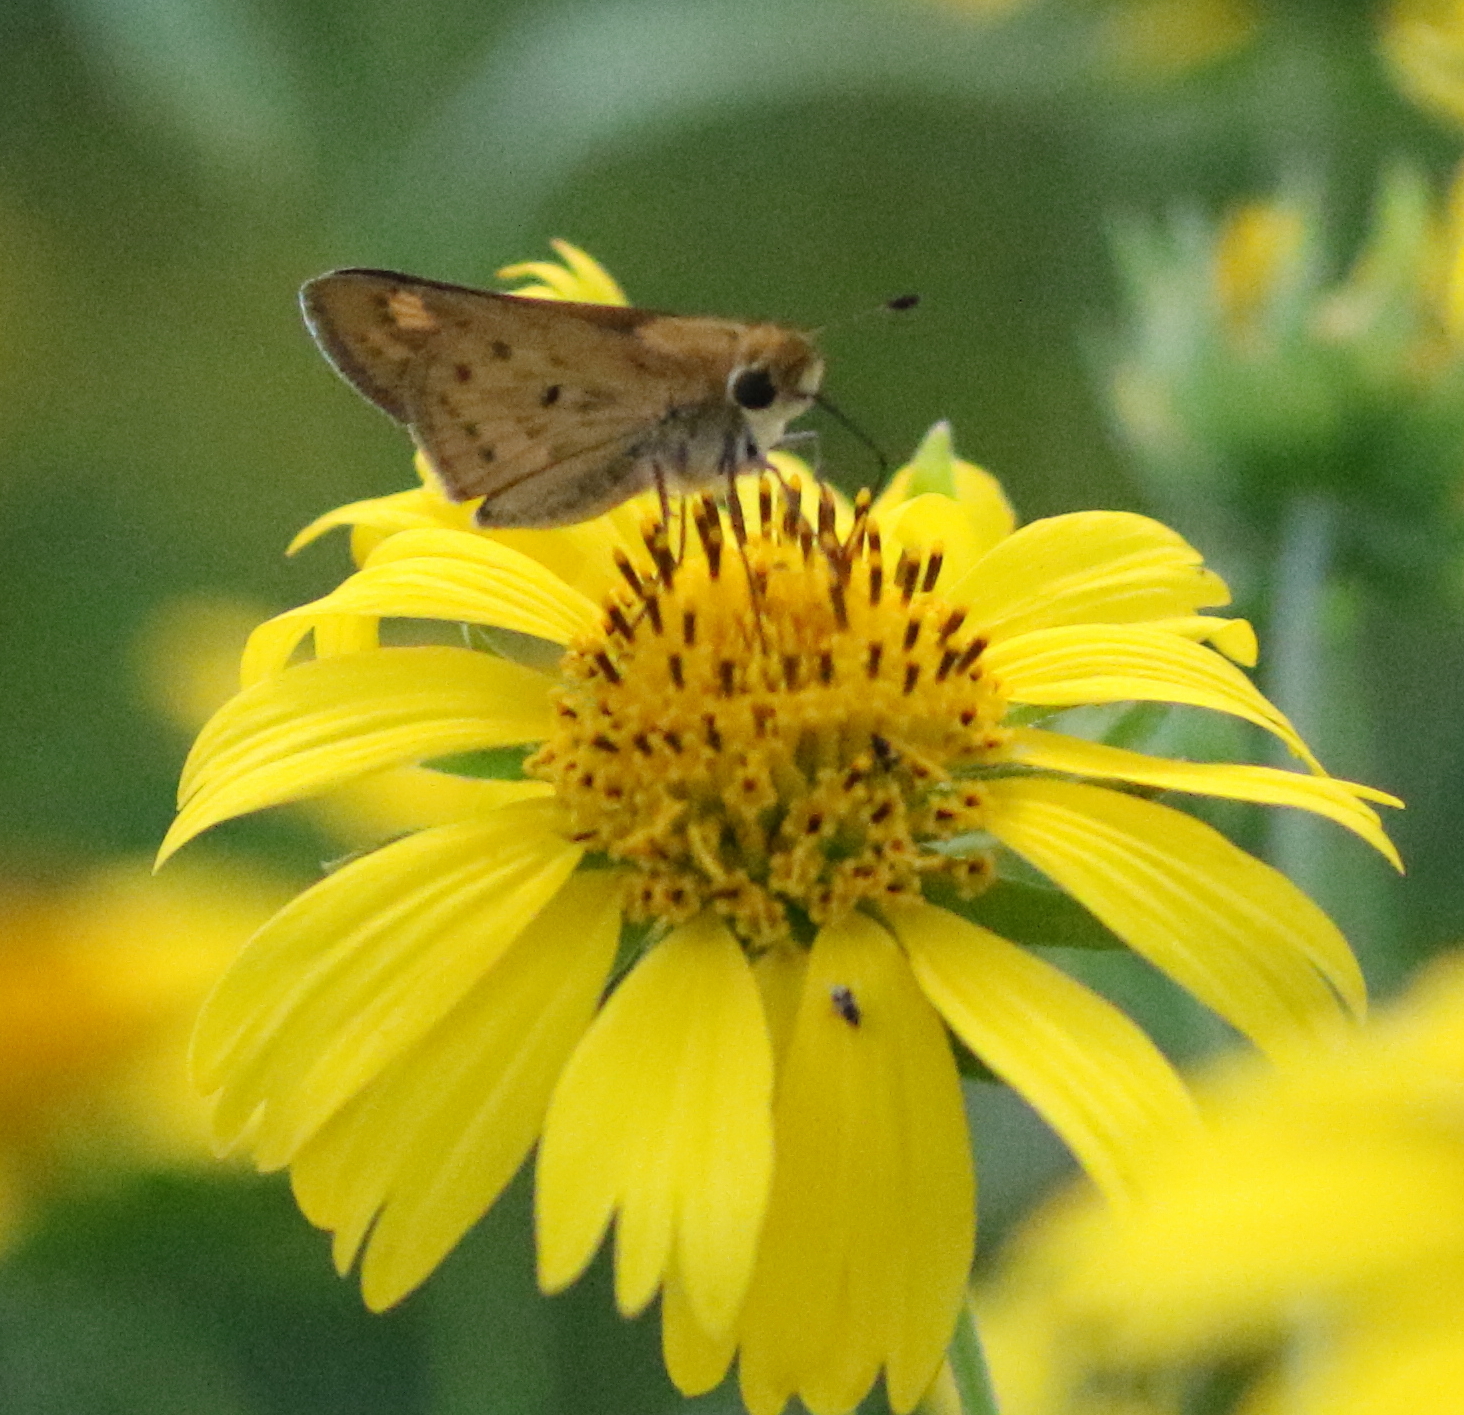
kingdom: Animalia
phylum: Arthropoda
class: Insecta
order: Lepidoptera
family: Hesperiidae
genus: Hylephila
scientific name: Hylephila phyleus
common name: Fiery skipper
